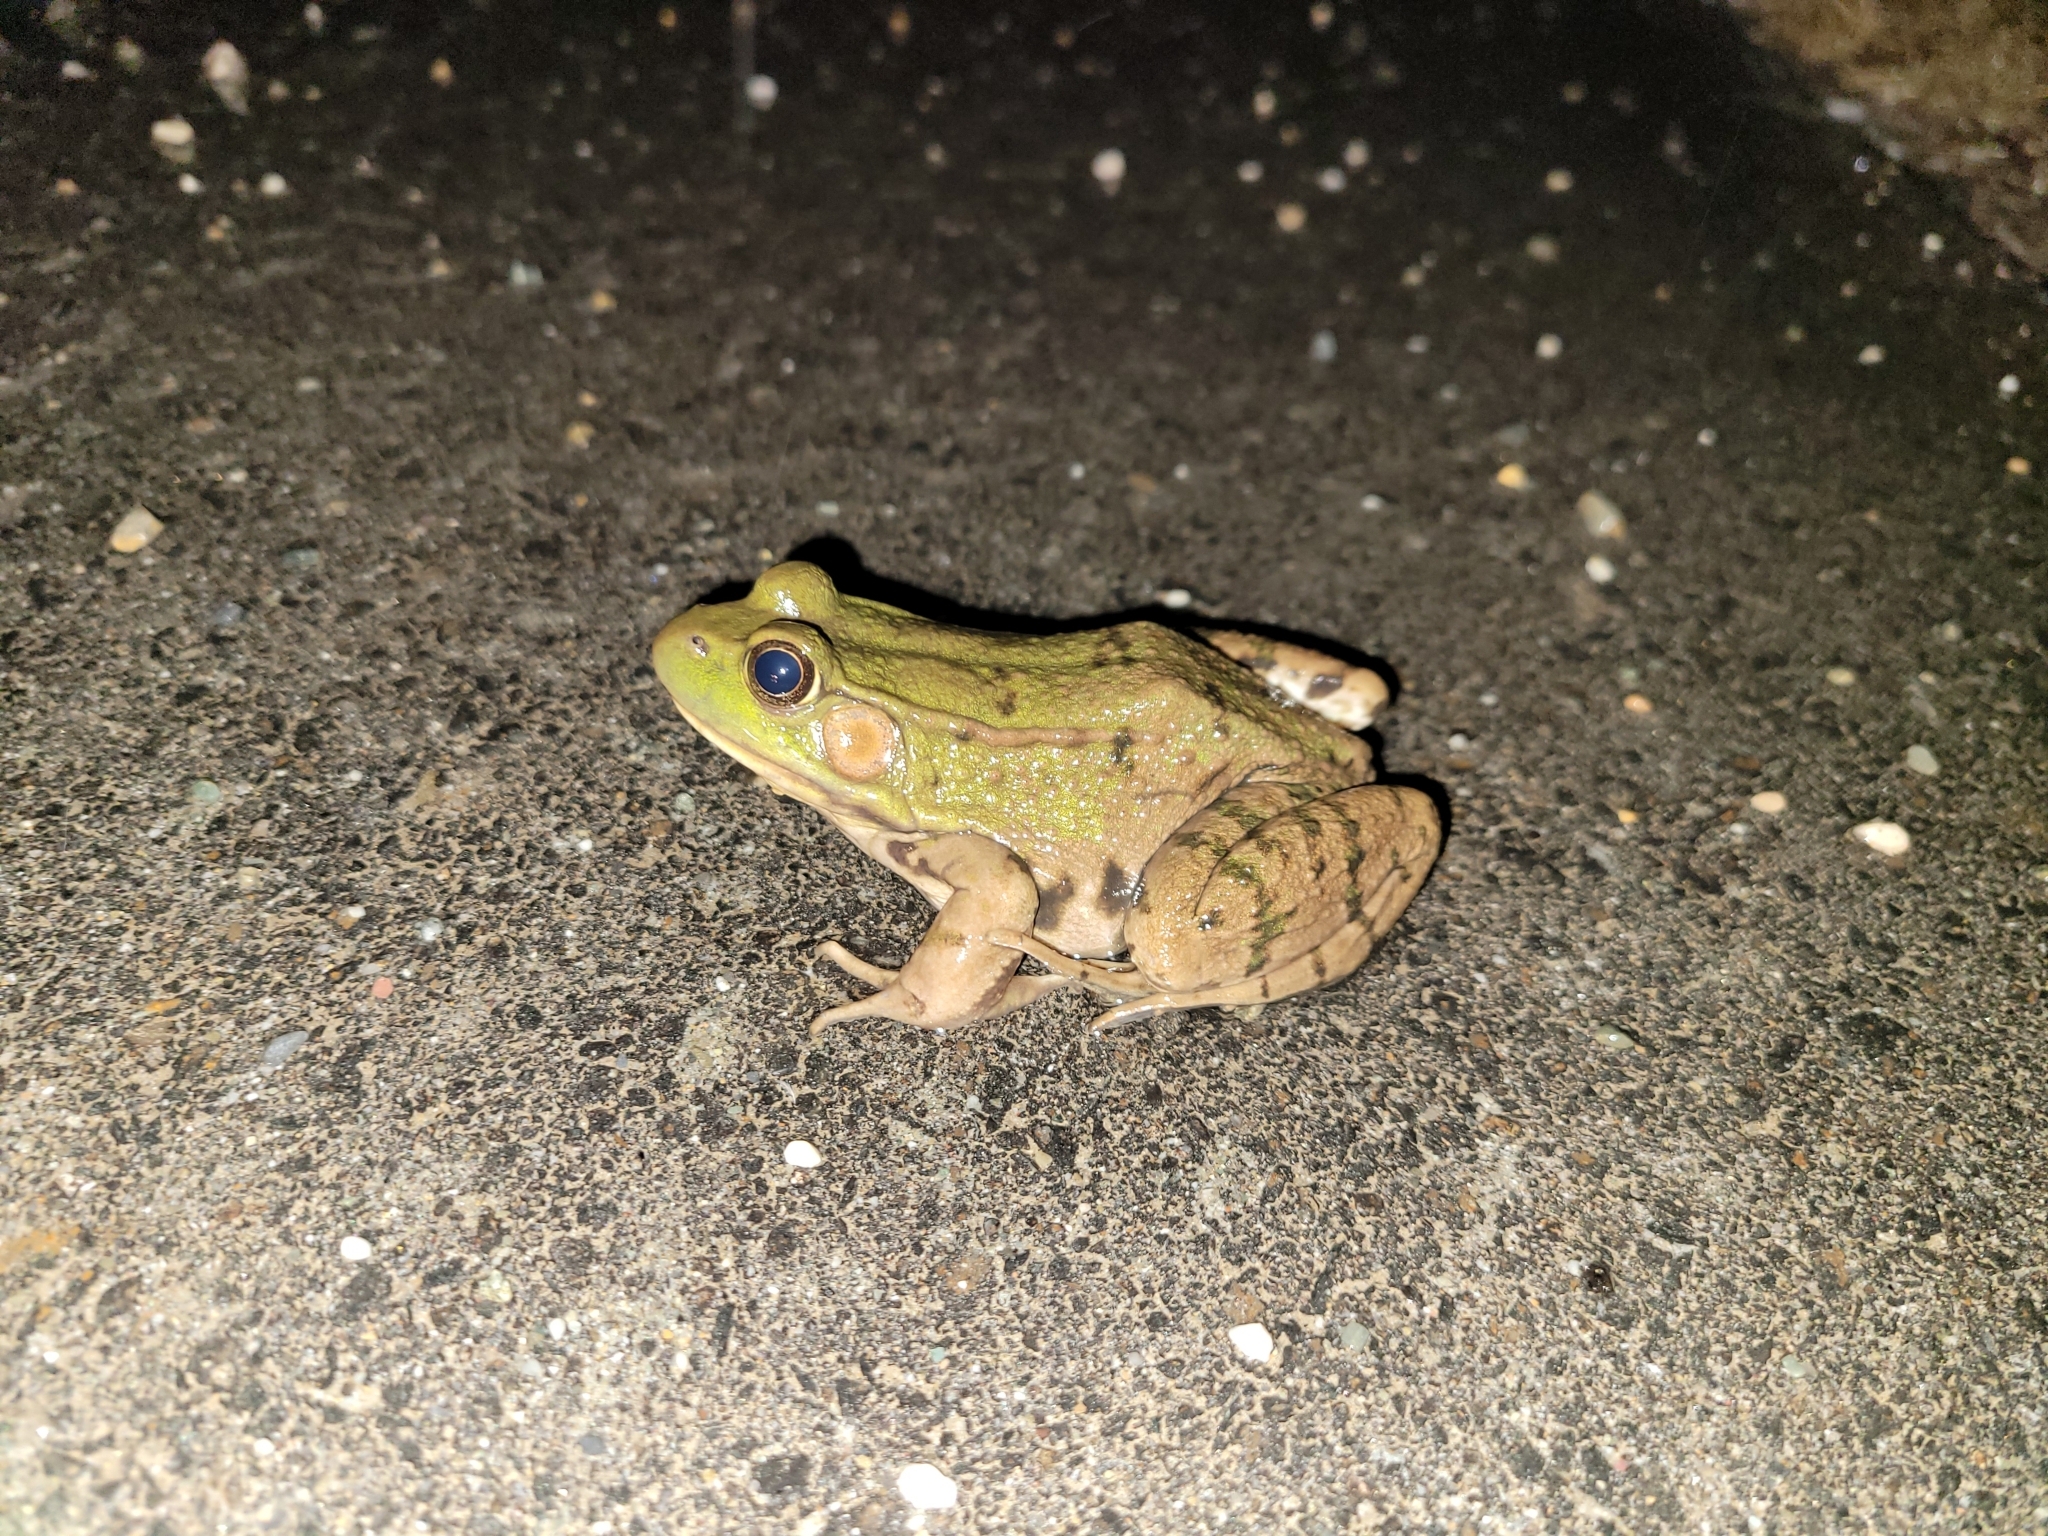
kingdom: Animalia
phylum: Chordata
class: Amphibia
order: Anura
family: Ranidae
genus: Lithobates
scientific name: Lithobates clamitans
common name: Green frog
